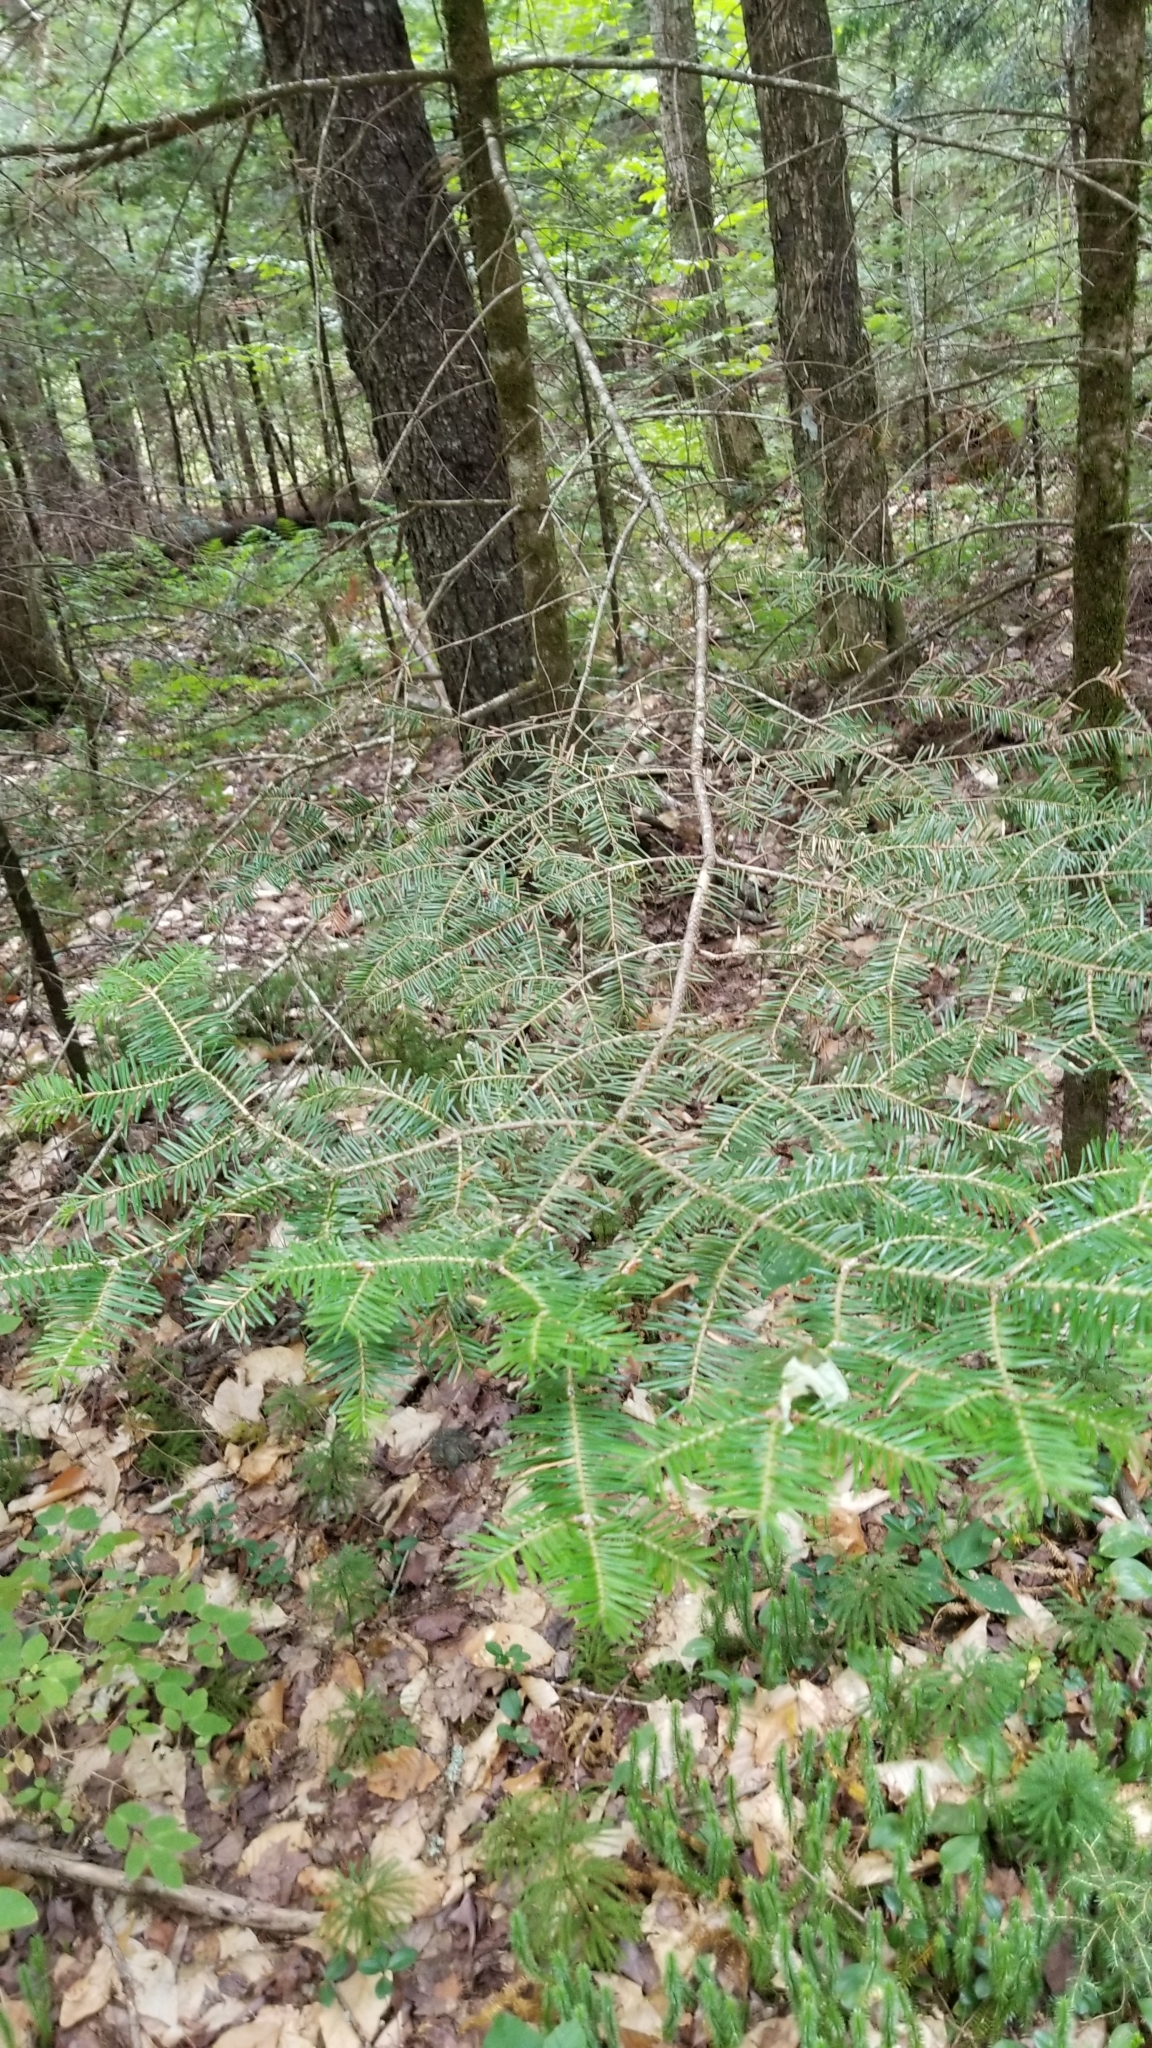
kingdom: Plantae
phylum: Tracheophyta
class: Pinopsida
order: Pinales
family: Pinaceae
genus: Abies
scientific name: Abies balsamea
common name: Balsam fir
